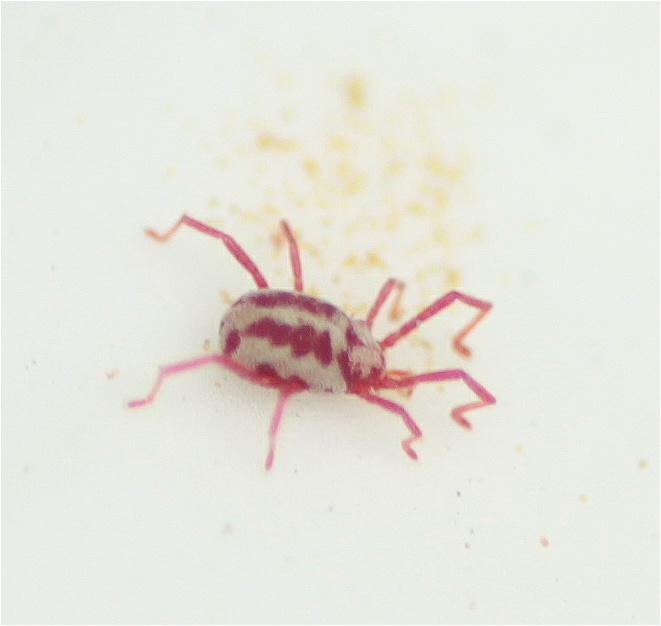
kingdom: Animalia
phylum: Arthropoda
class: Arachnida
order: Trombidiformes
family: Erythraeidae
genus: Balaustium
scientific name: Balaustium leanderi
